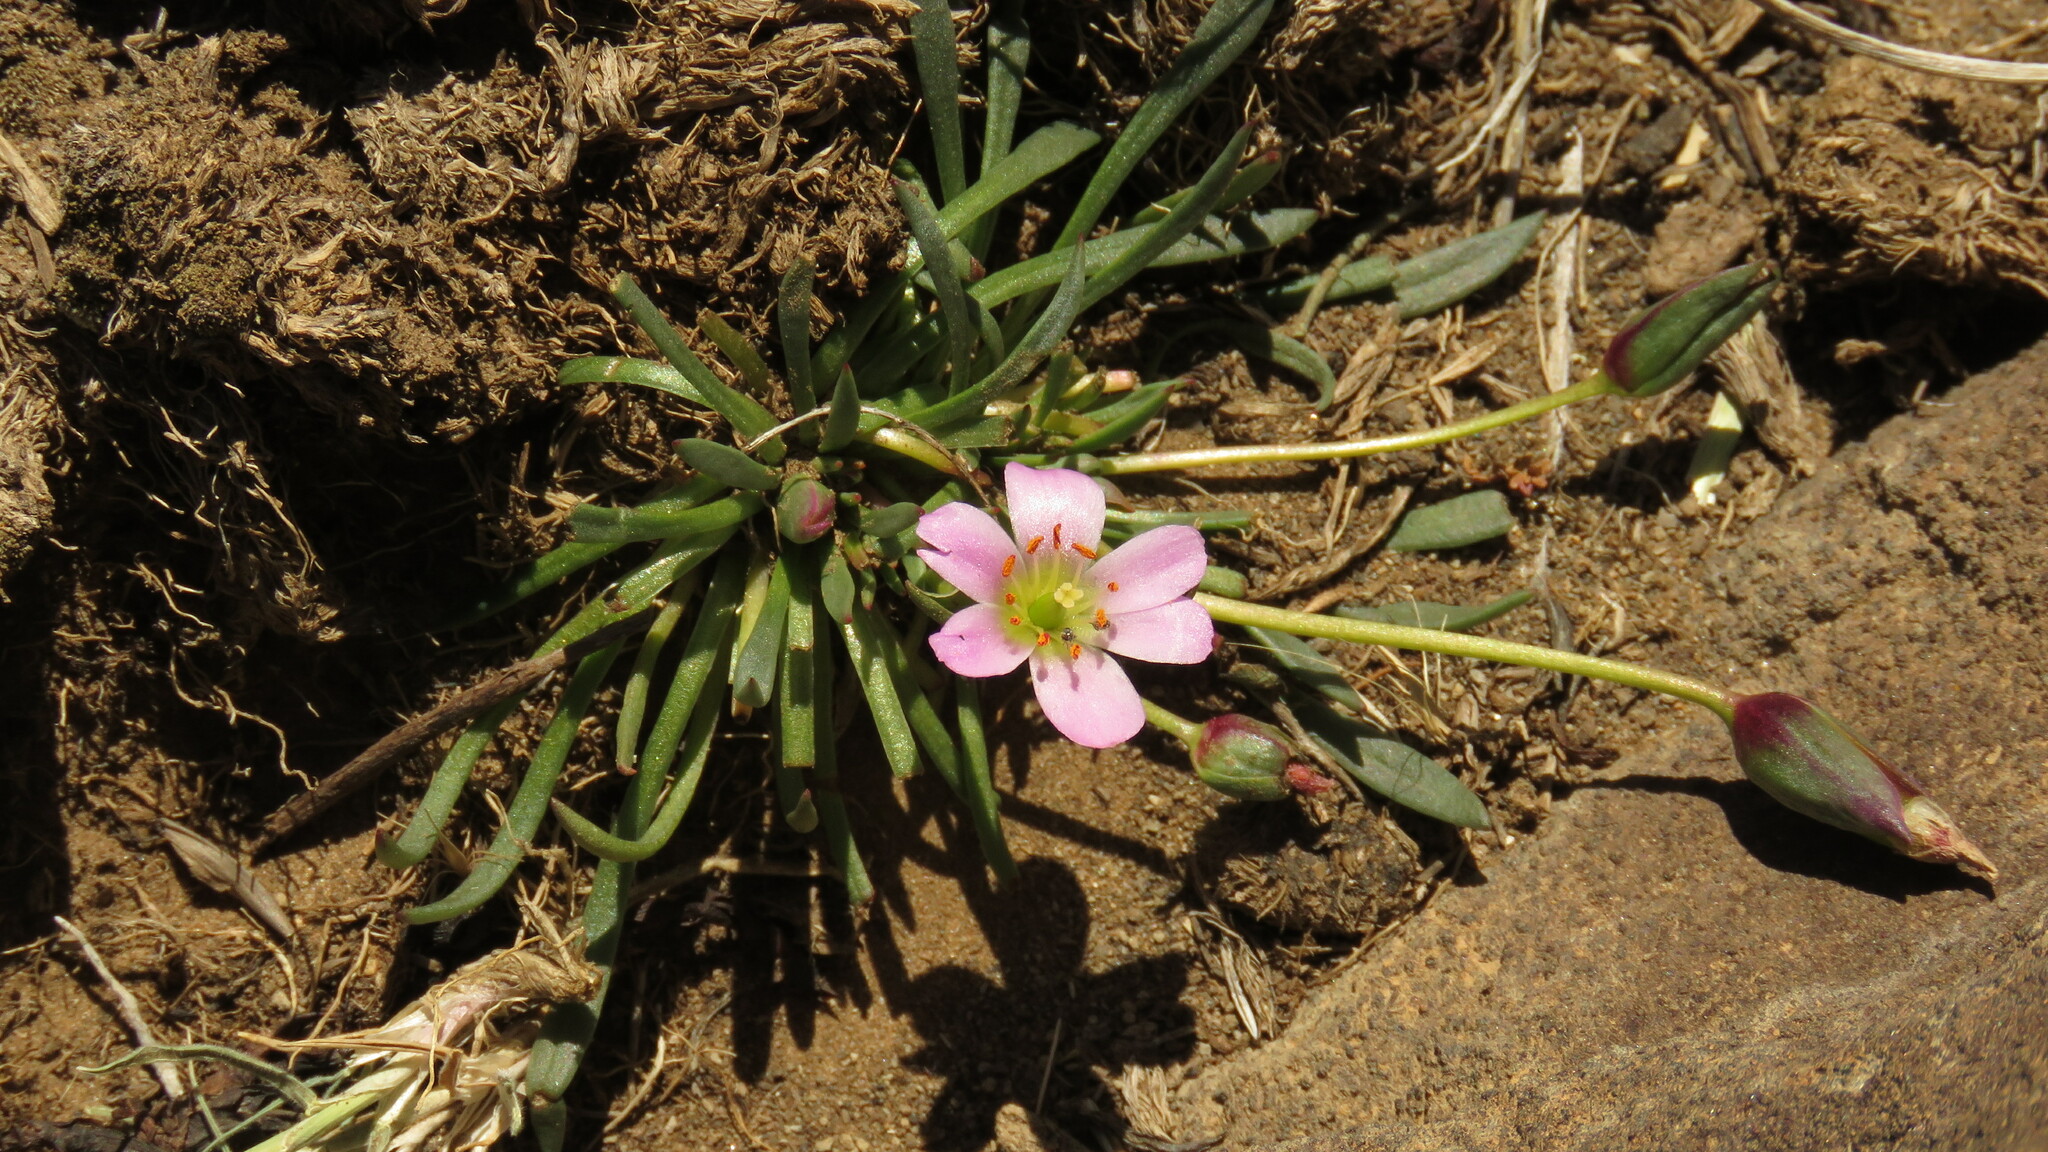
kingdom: Plantae
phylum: Tracheophyta
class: Magnoliopsida
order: Caryophyllales
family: Montiaceae
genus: Calandrinia
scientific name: Calandrinia caespitosa
